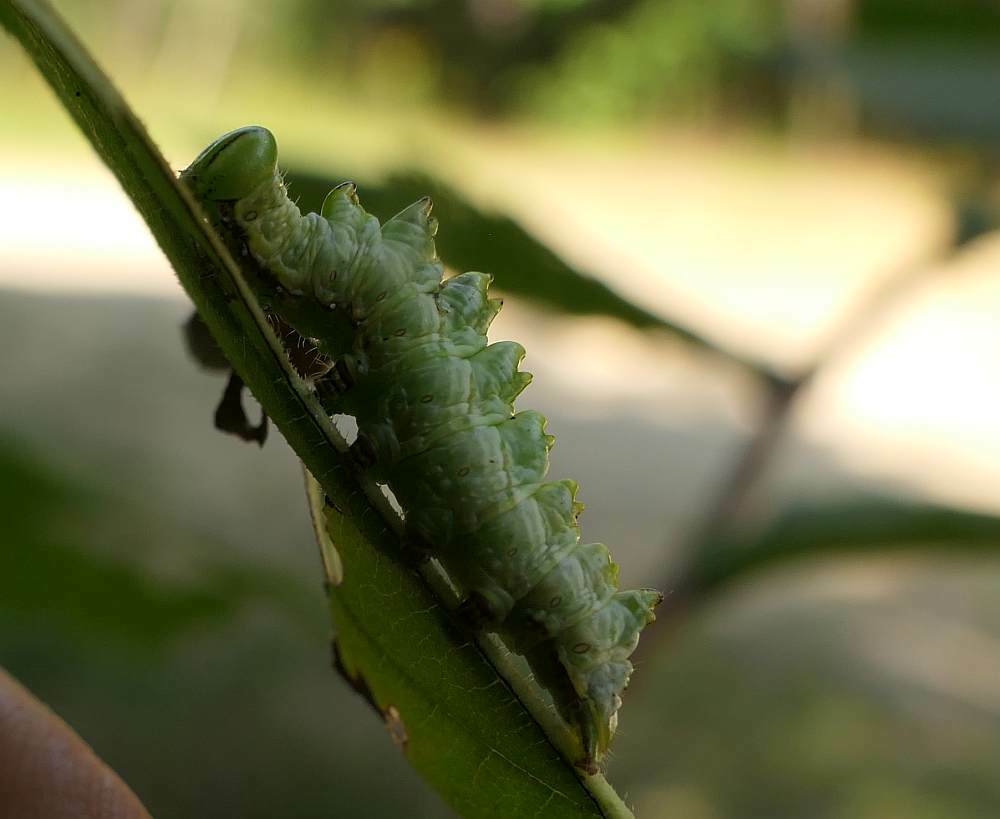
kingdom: Animalia
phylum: Arthropoda
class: Insecta
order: Lepidoptera
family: Notodontidae
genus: Nerice
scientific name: Nerice bidentata
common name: Double-toothed prominent
